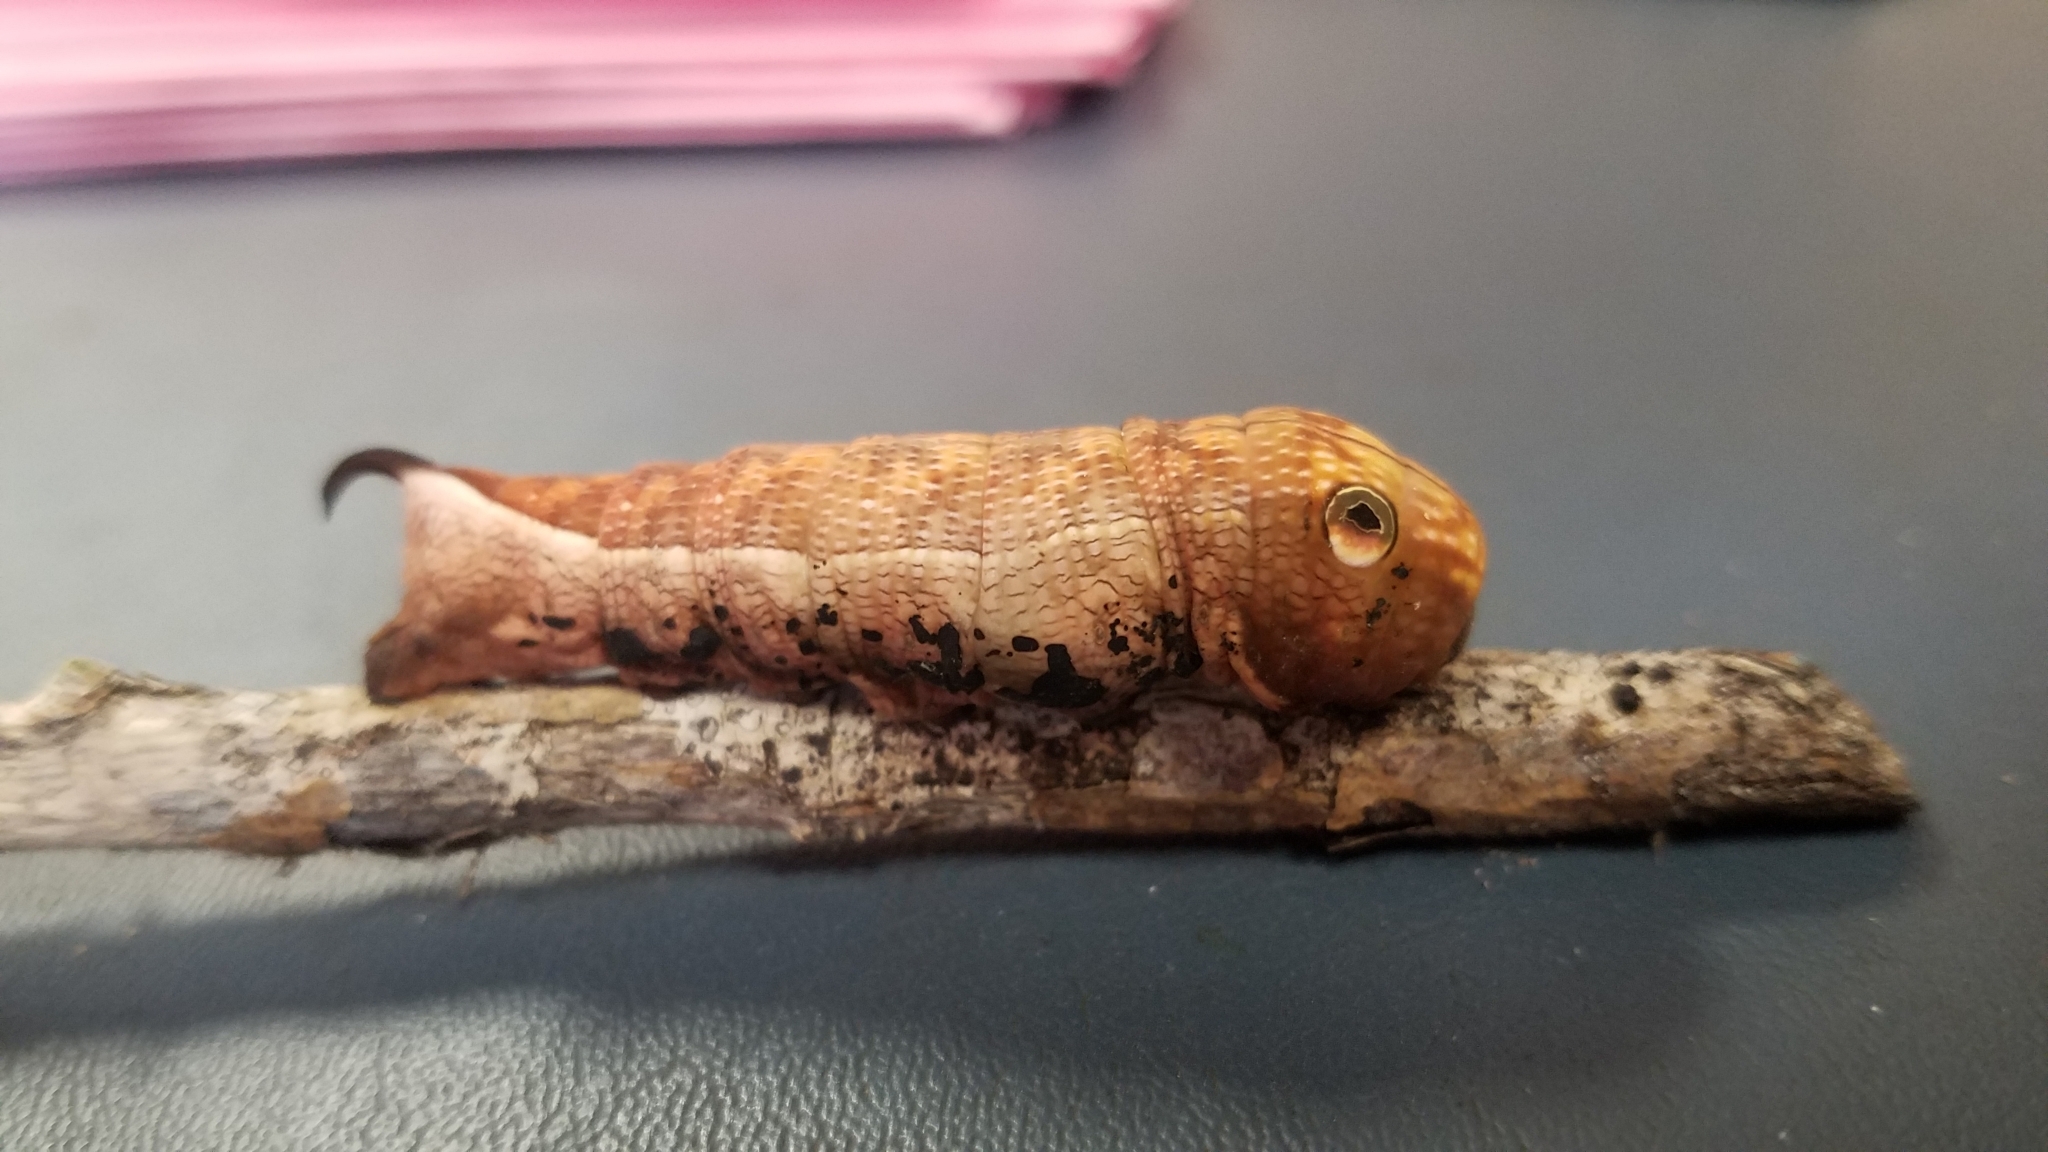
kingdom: Animalia
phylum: Arthropoda
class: Insecta
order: Lepidoptera
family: Sphingidae
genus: Xylophanes
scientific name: Xylophanes pluto
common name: Pluto sphinx
